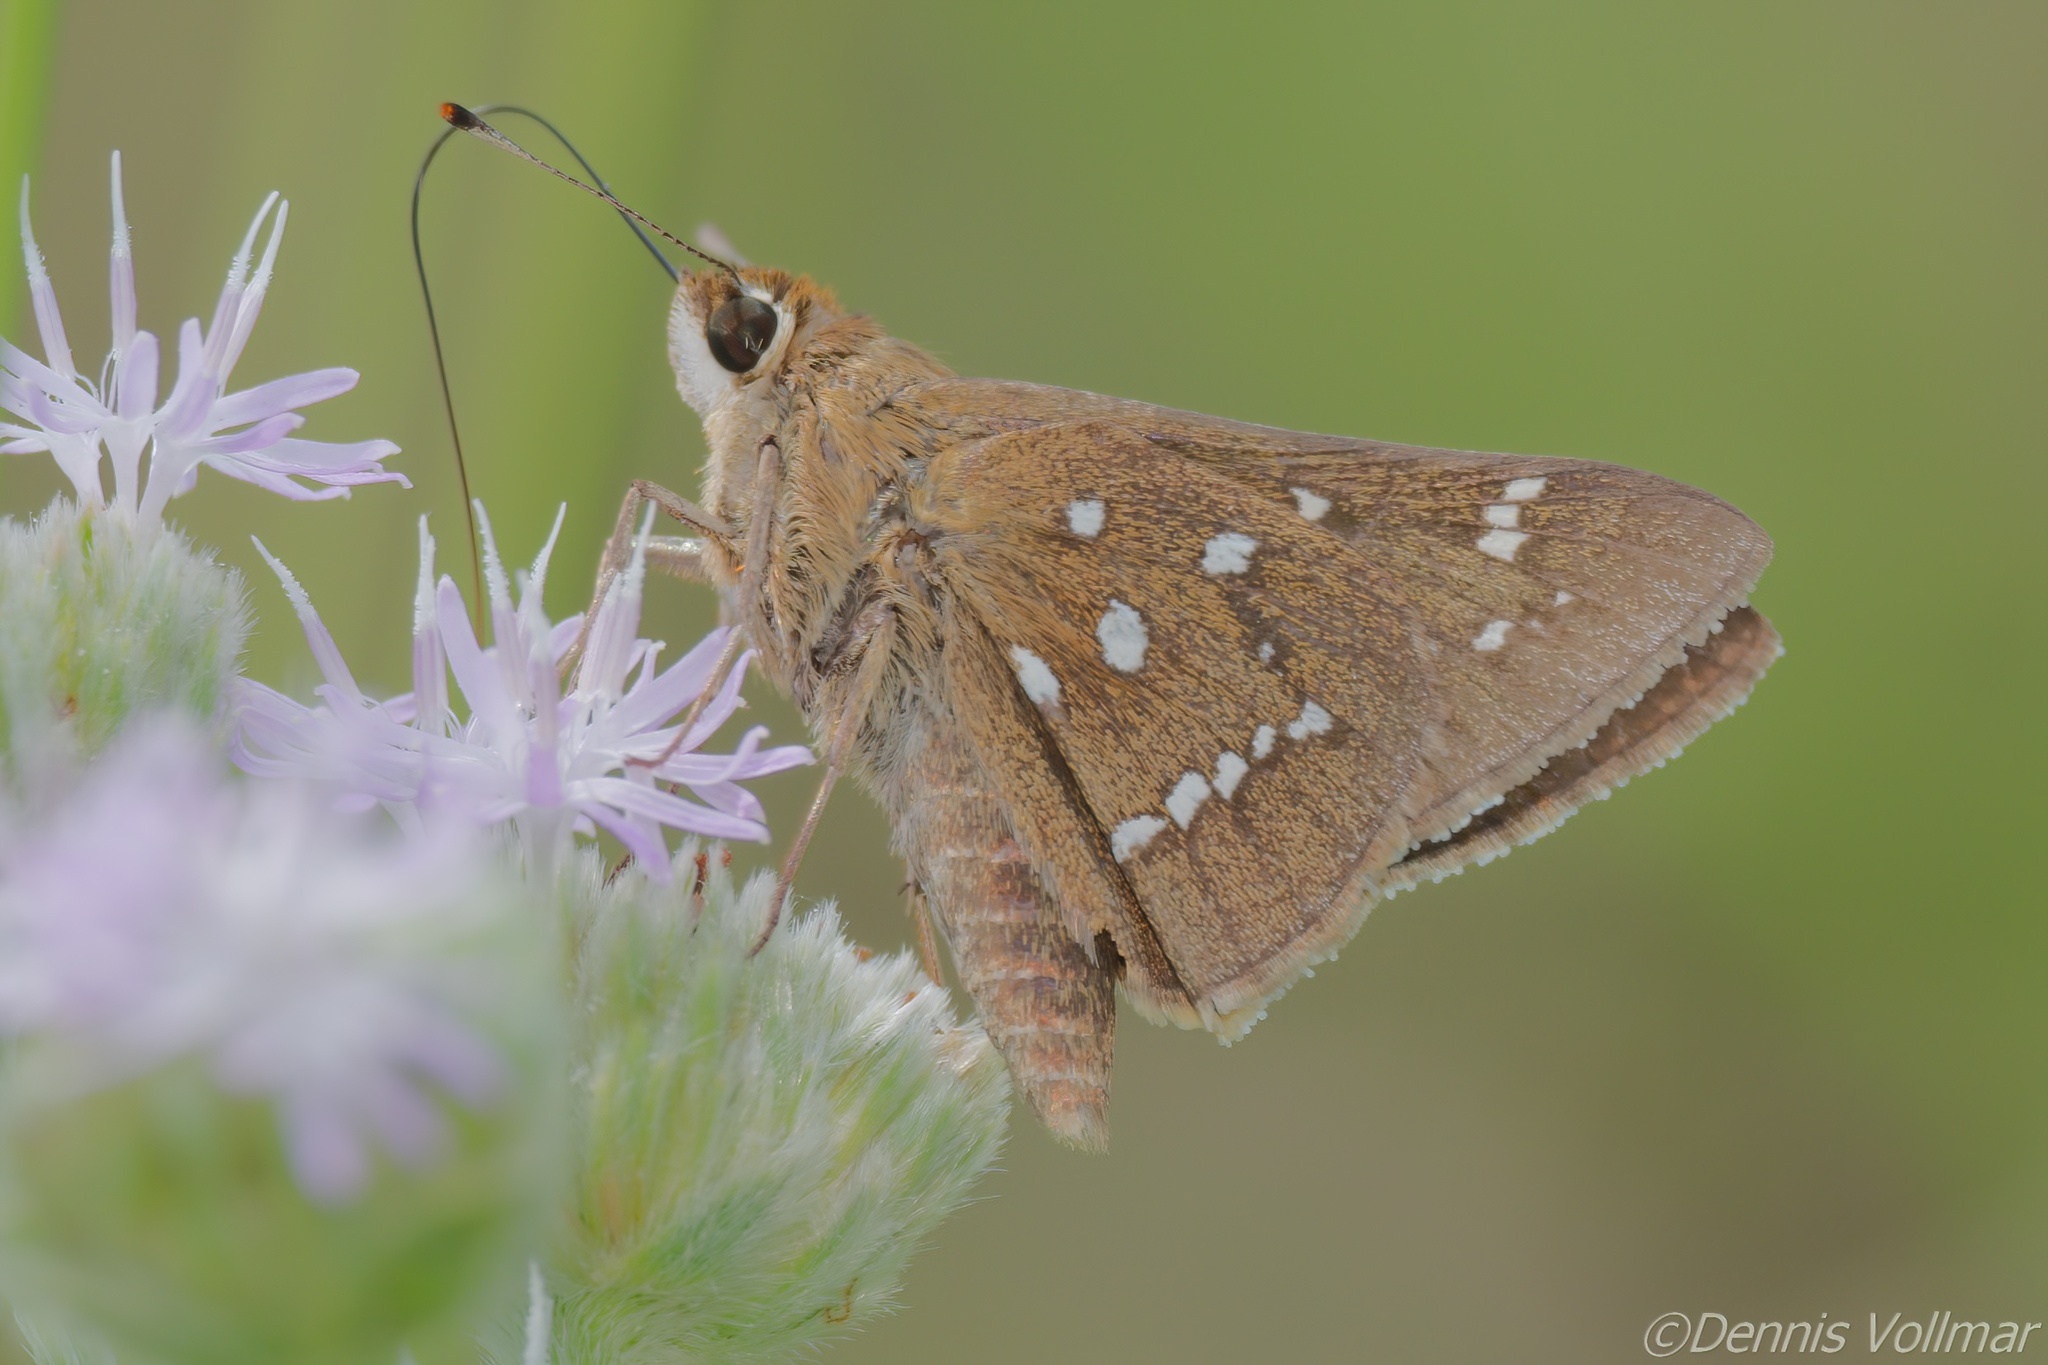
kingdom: Animalia
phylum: Arthropoda
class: Insecta
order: Lepidoptera
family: Hesperiidae
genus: Atrytonopsis
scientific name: Atrytonopsis loammi
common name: Loammi skipper
